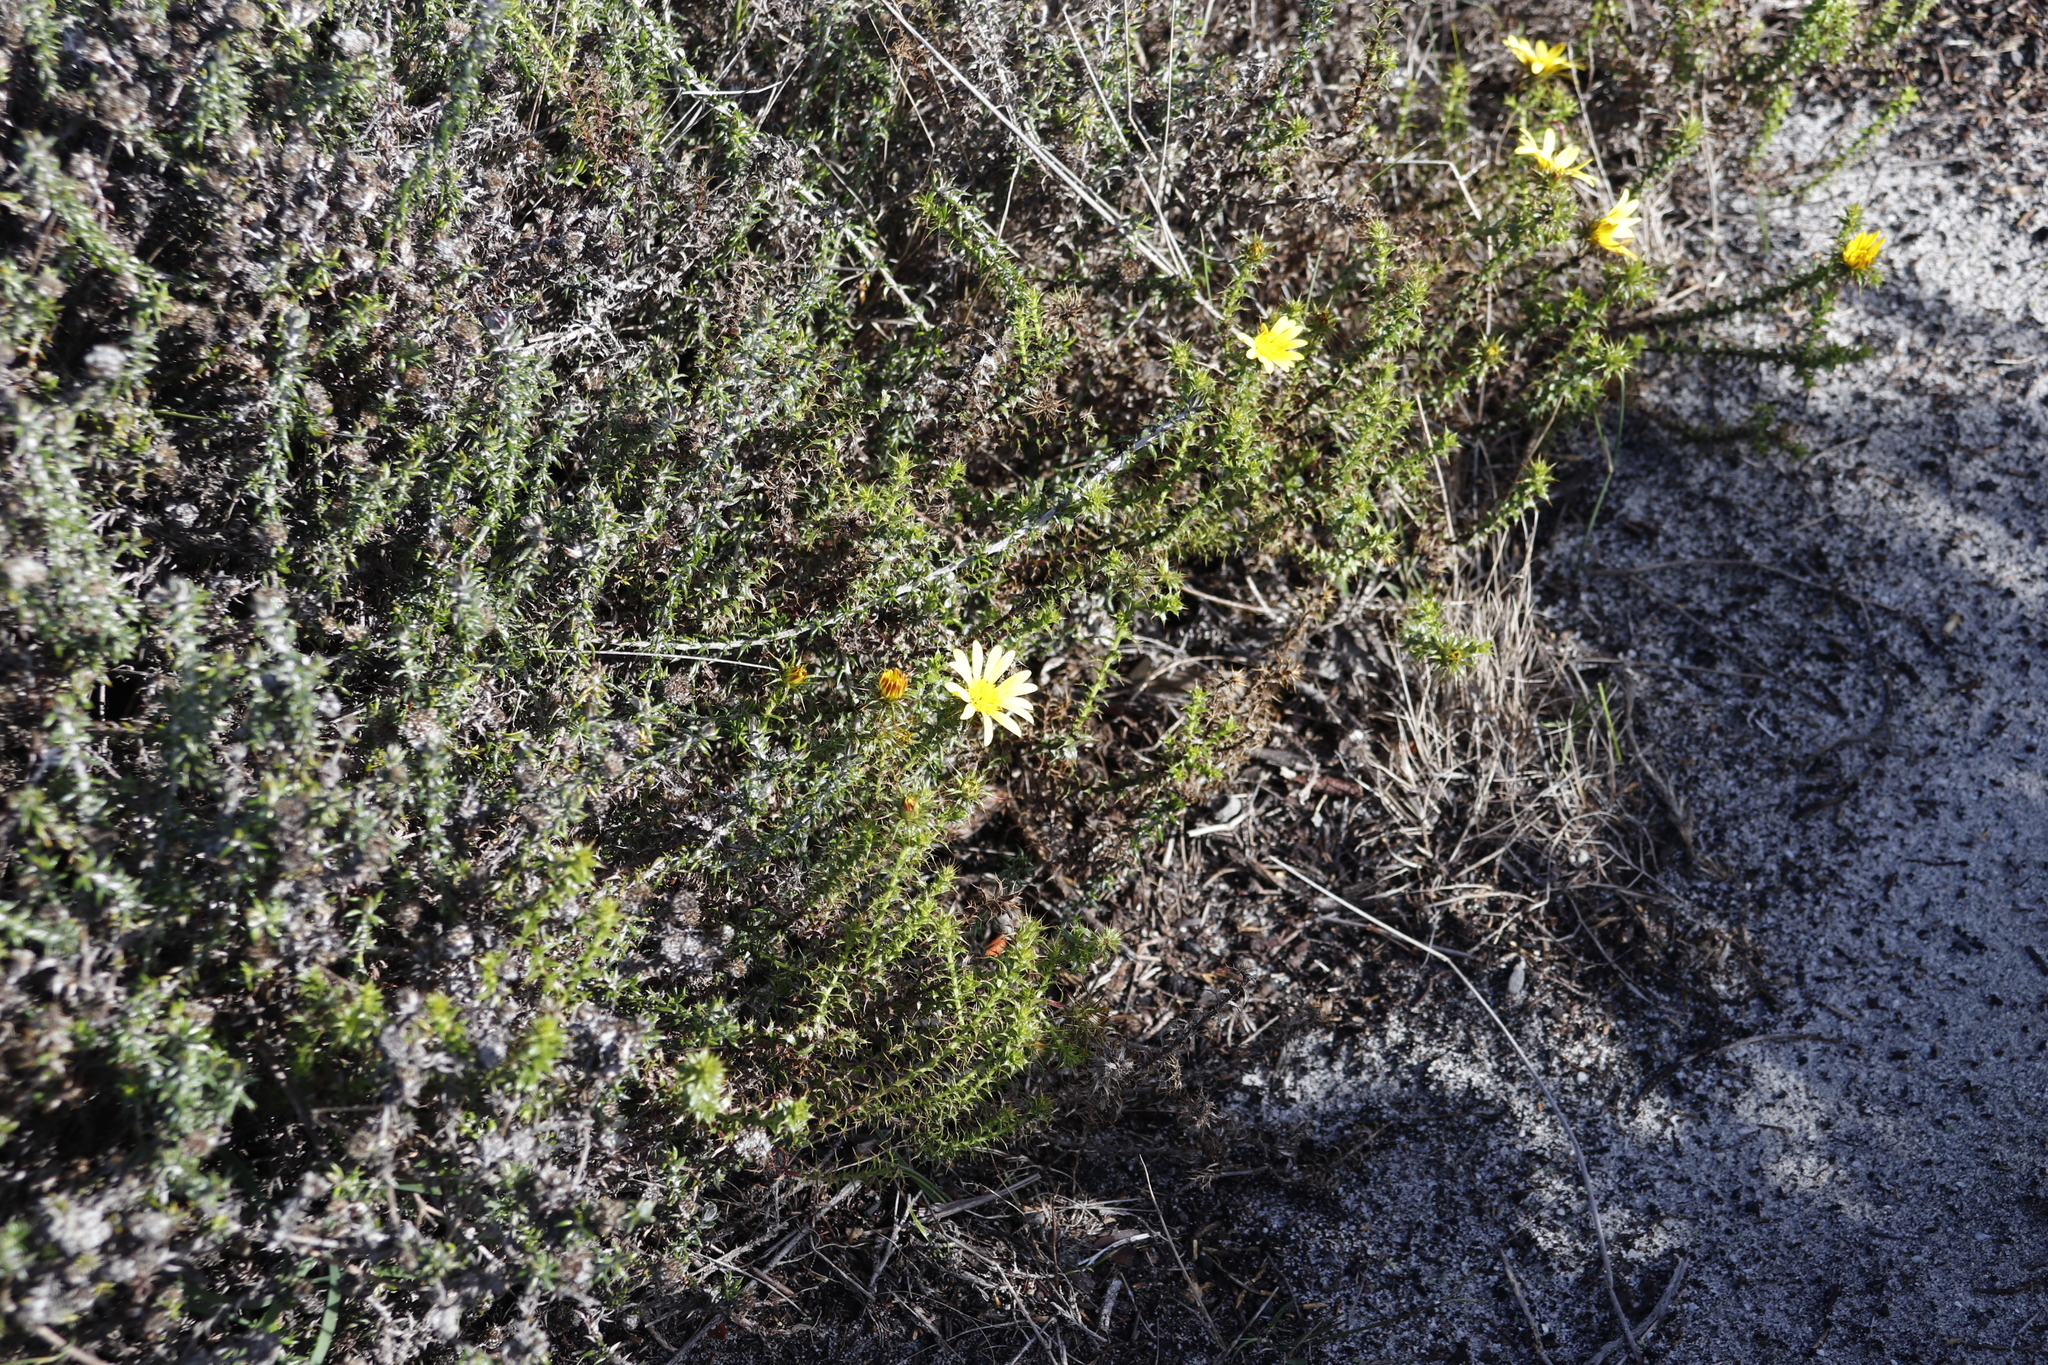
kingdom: Plantae
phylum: Tracheophyta
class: Magnoliopsida
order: Asterales
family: Asteraceae
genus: Cullumia
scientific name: Cullumia setosa
